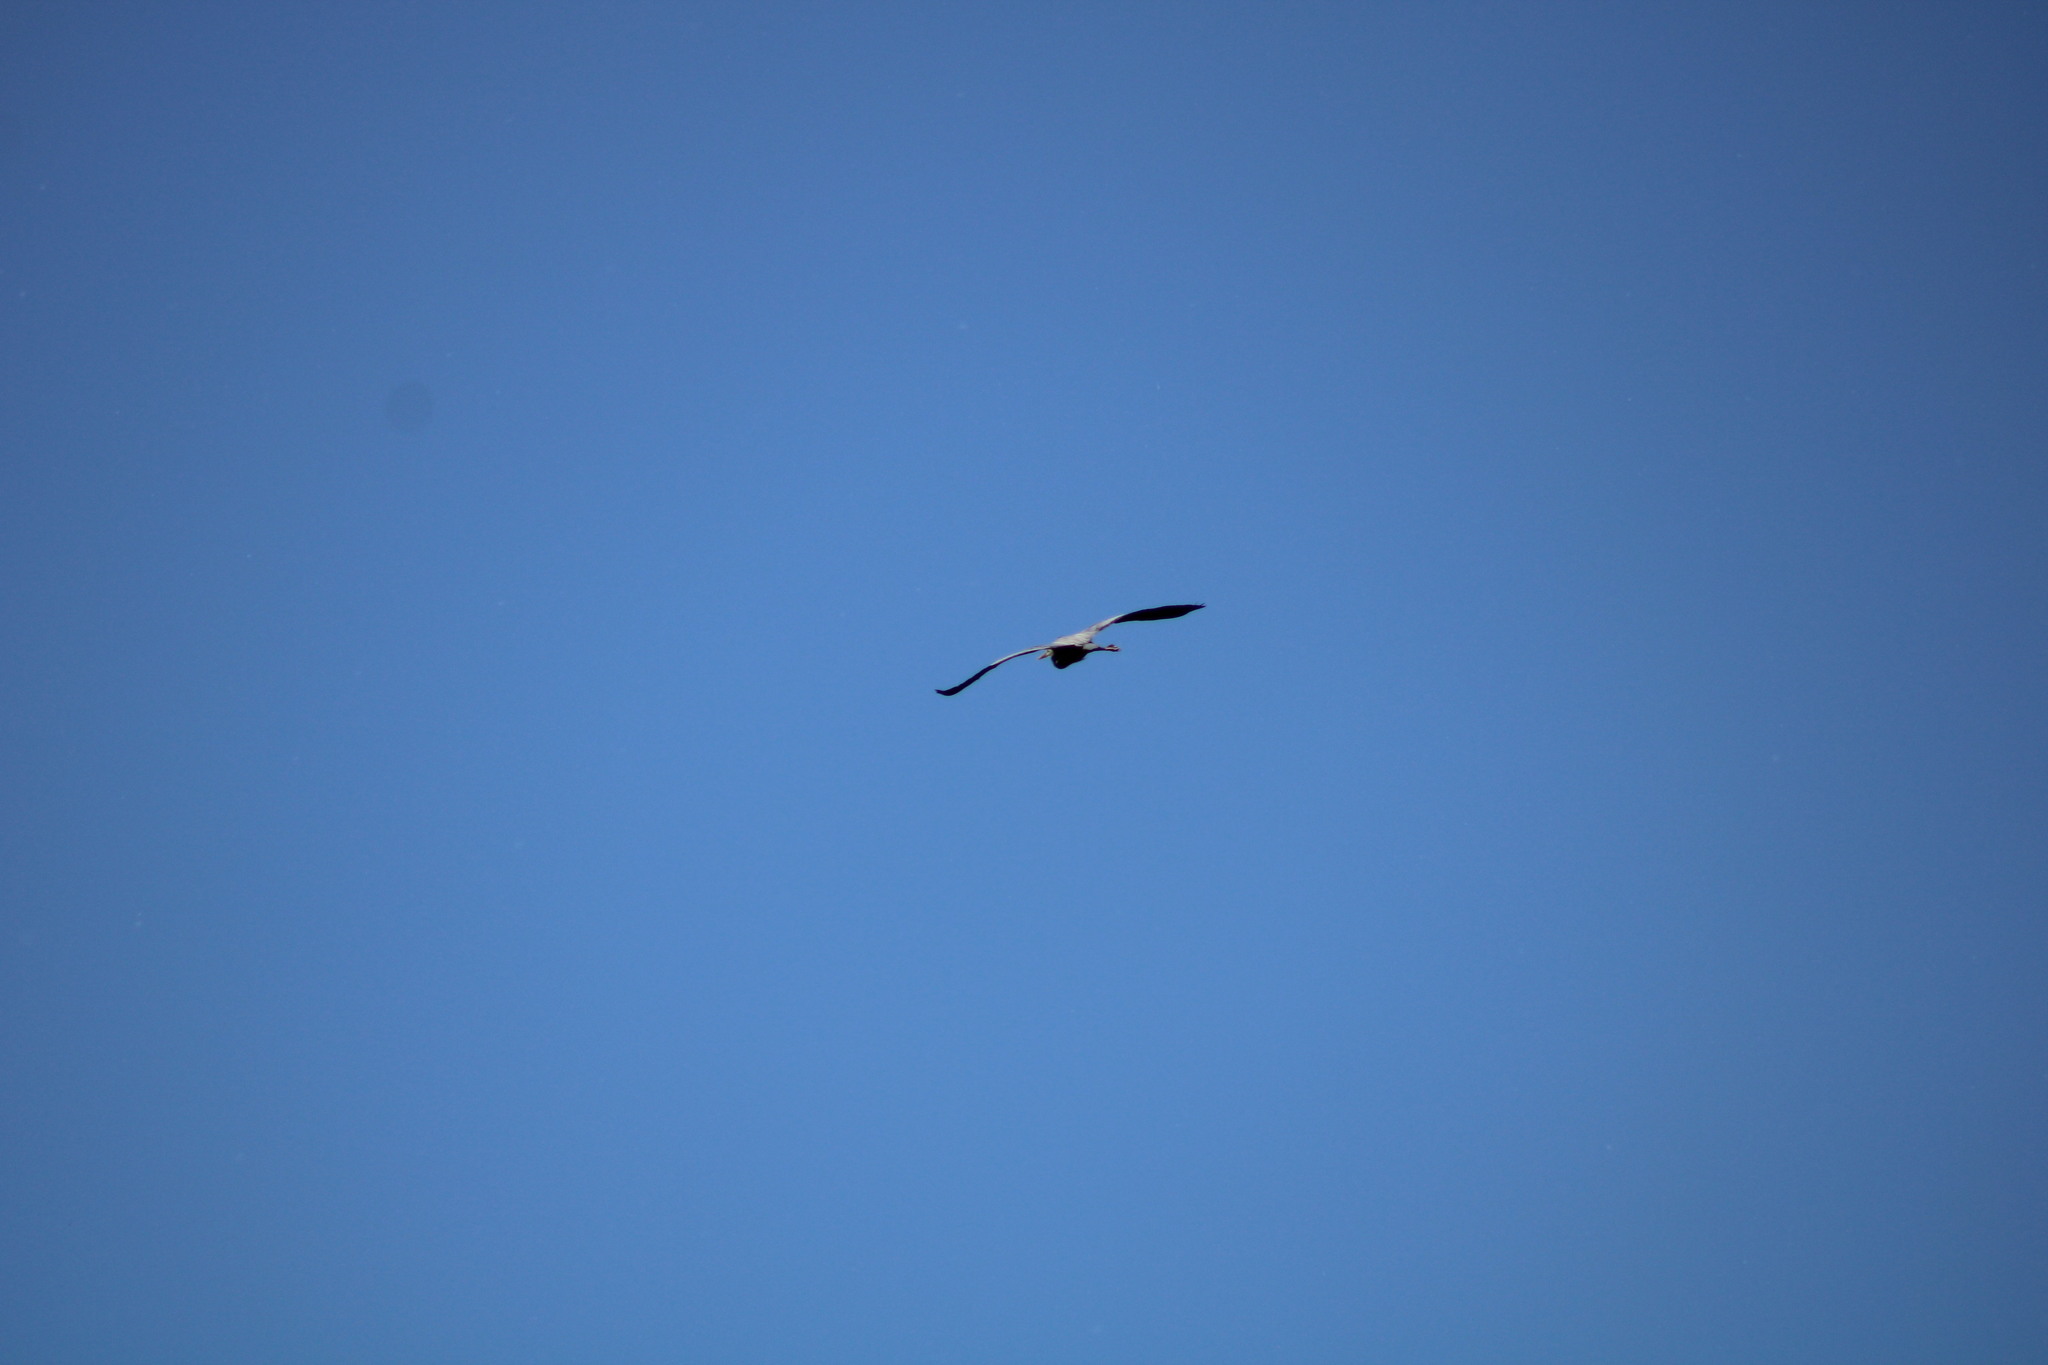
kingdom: Animalia
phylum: Chordata
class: Aves
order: Pelecaniformes
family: Ardeidae
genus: Ardea
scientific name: Ardea herodias
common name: Great blue heron
